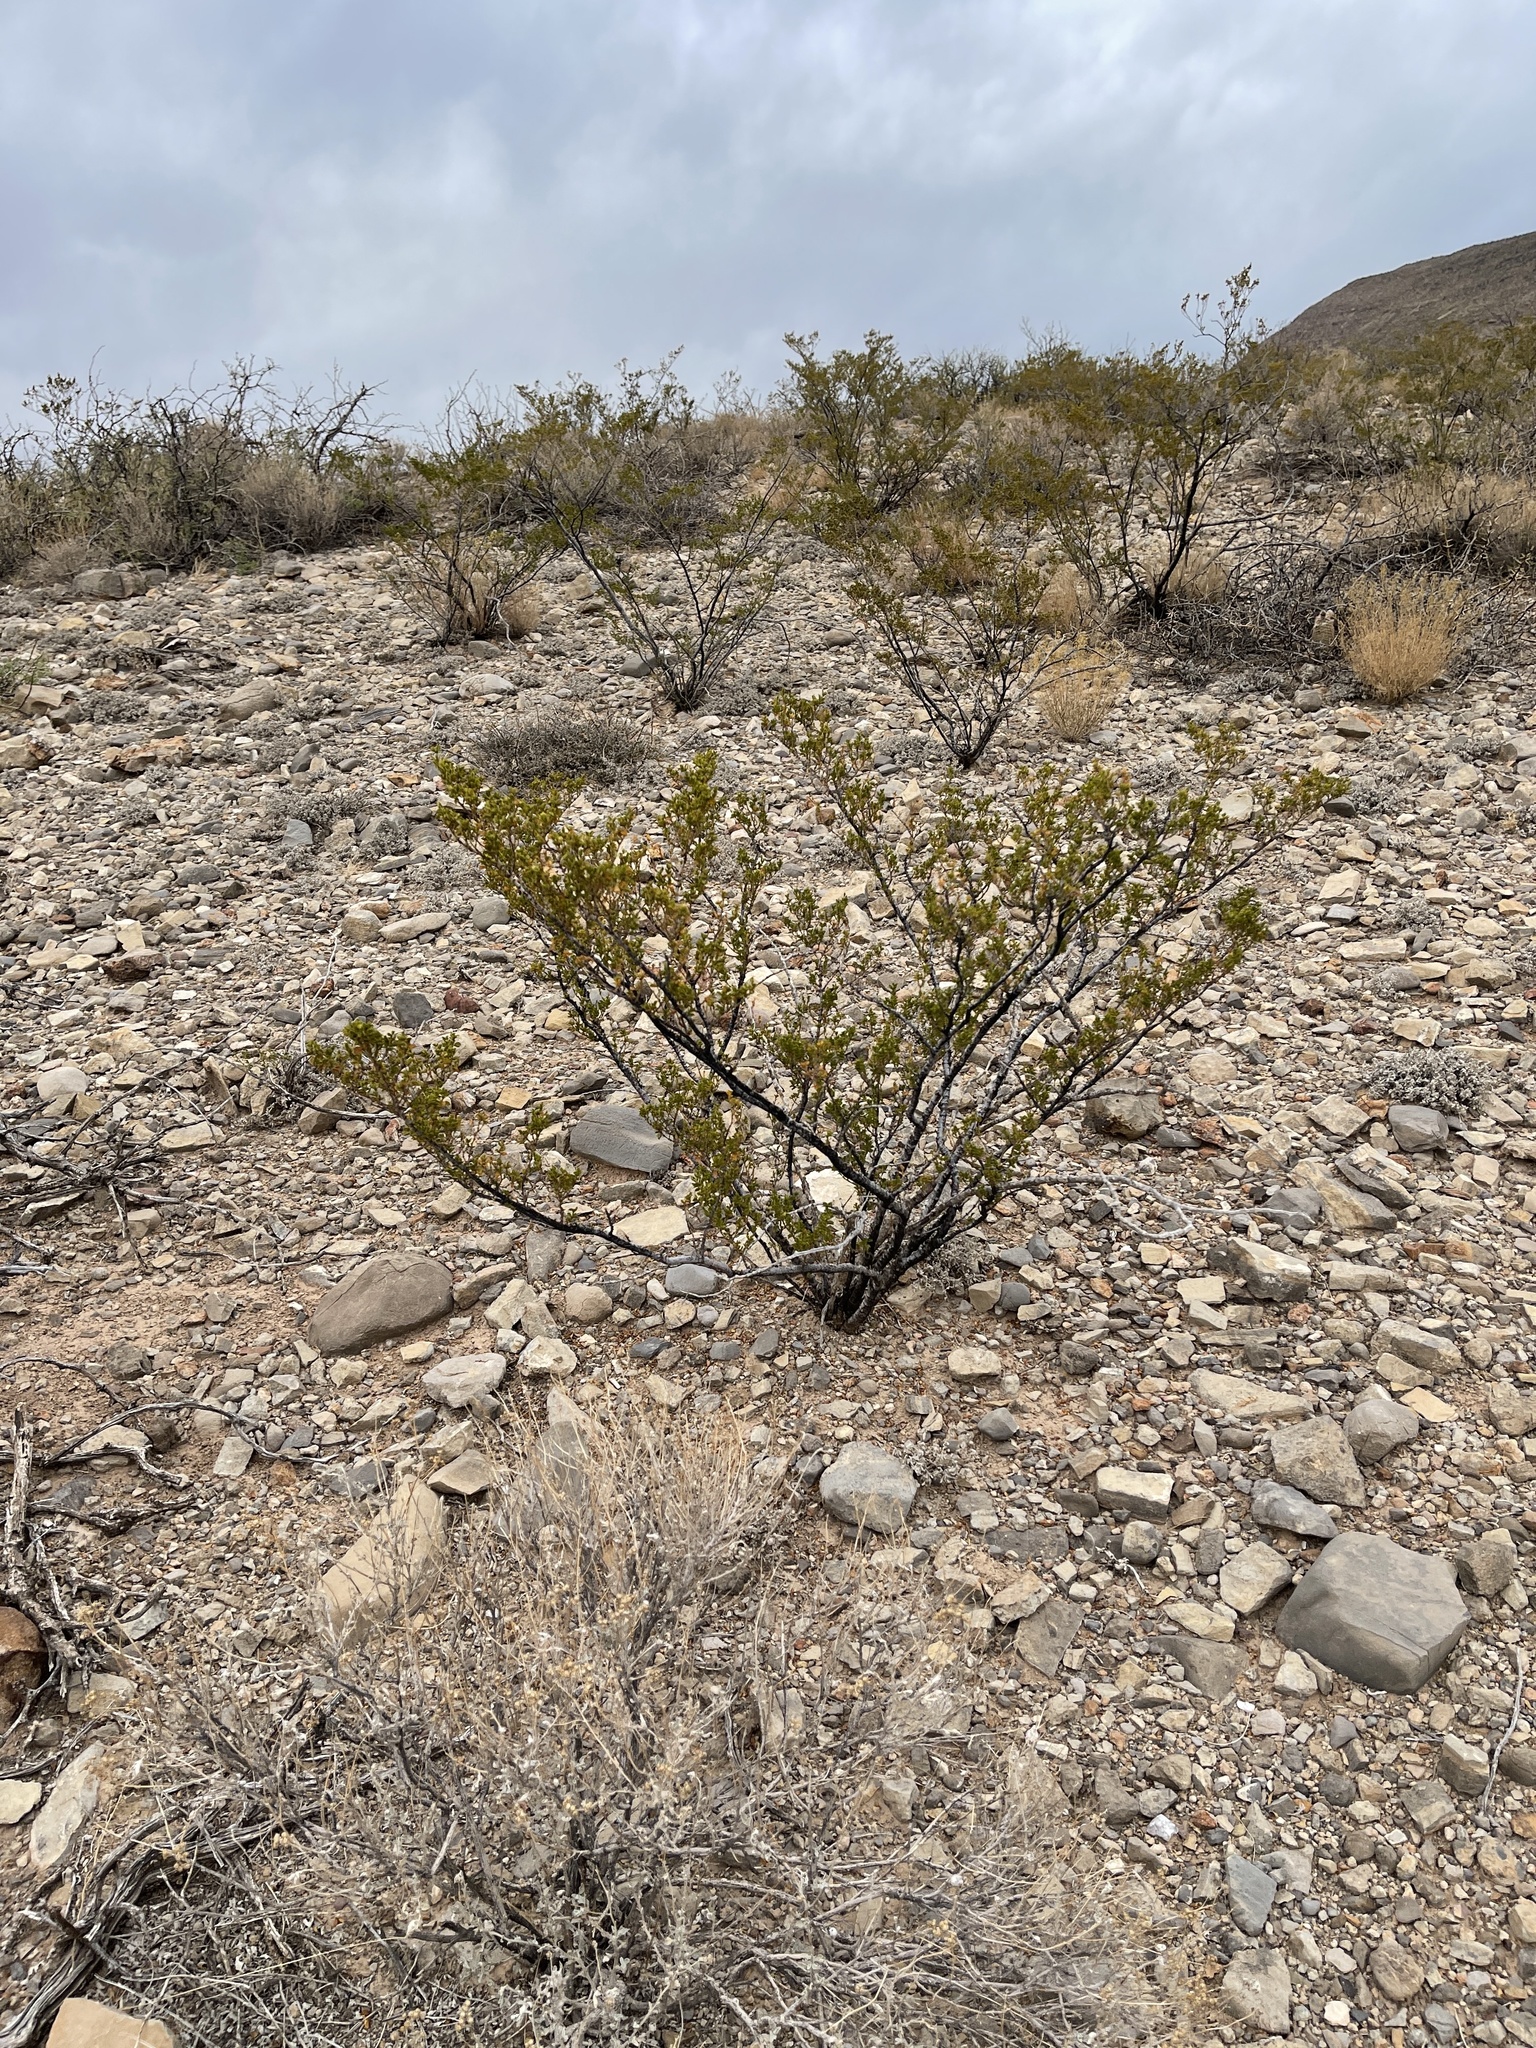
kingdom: Plantae
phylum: Tracheophyta
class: Magnoliopsida
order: Zygophyllales
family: Zygophyllaceae
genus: Larrea
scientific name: Larrea tridentata
